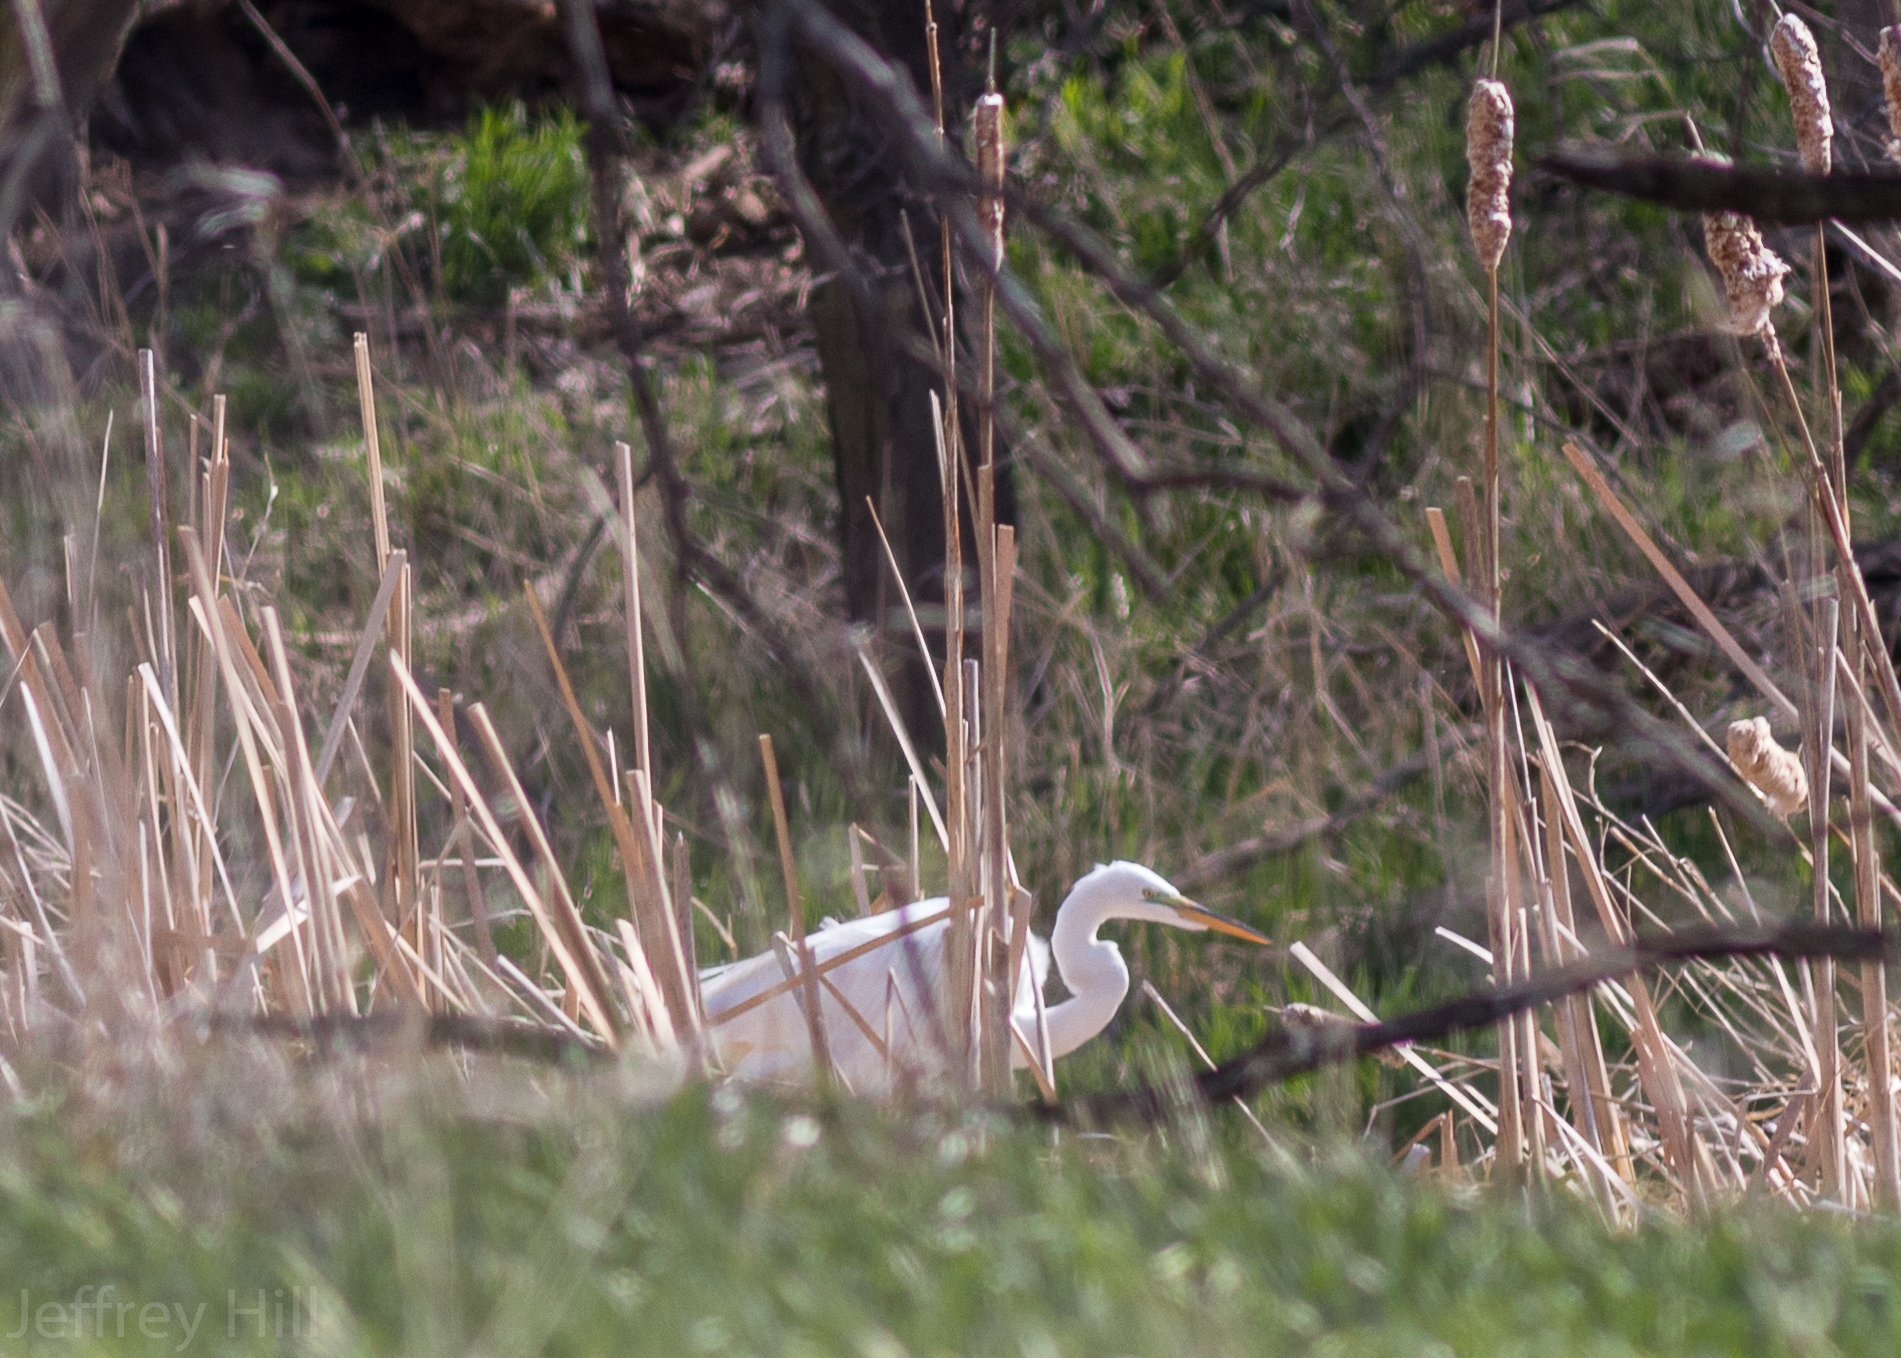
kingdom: Animalia
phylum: Chordata
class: Aves
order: Pelecaniformes
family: Ardeidae
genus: Ardea
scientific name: Ardea alba
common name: Great egret
